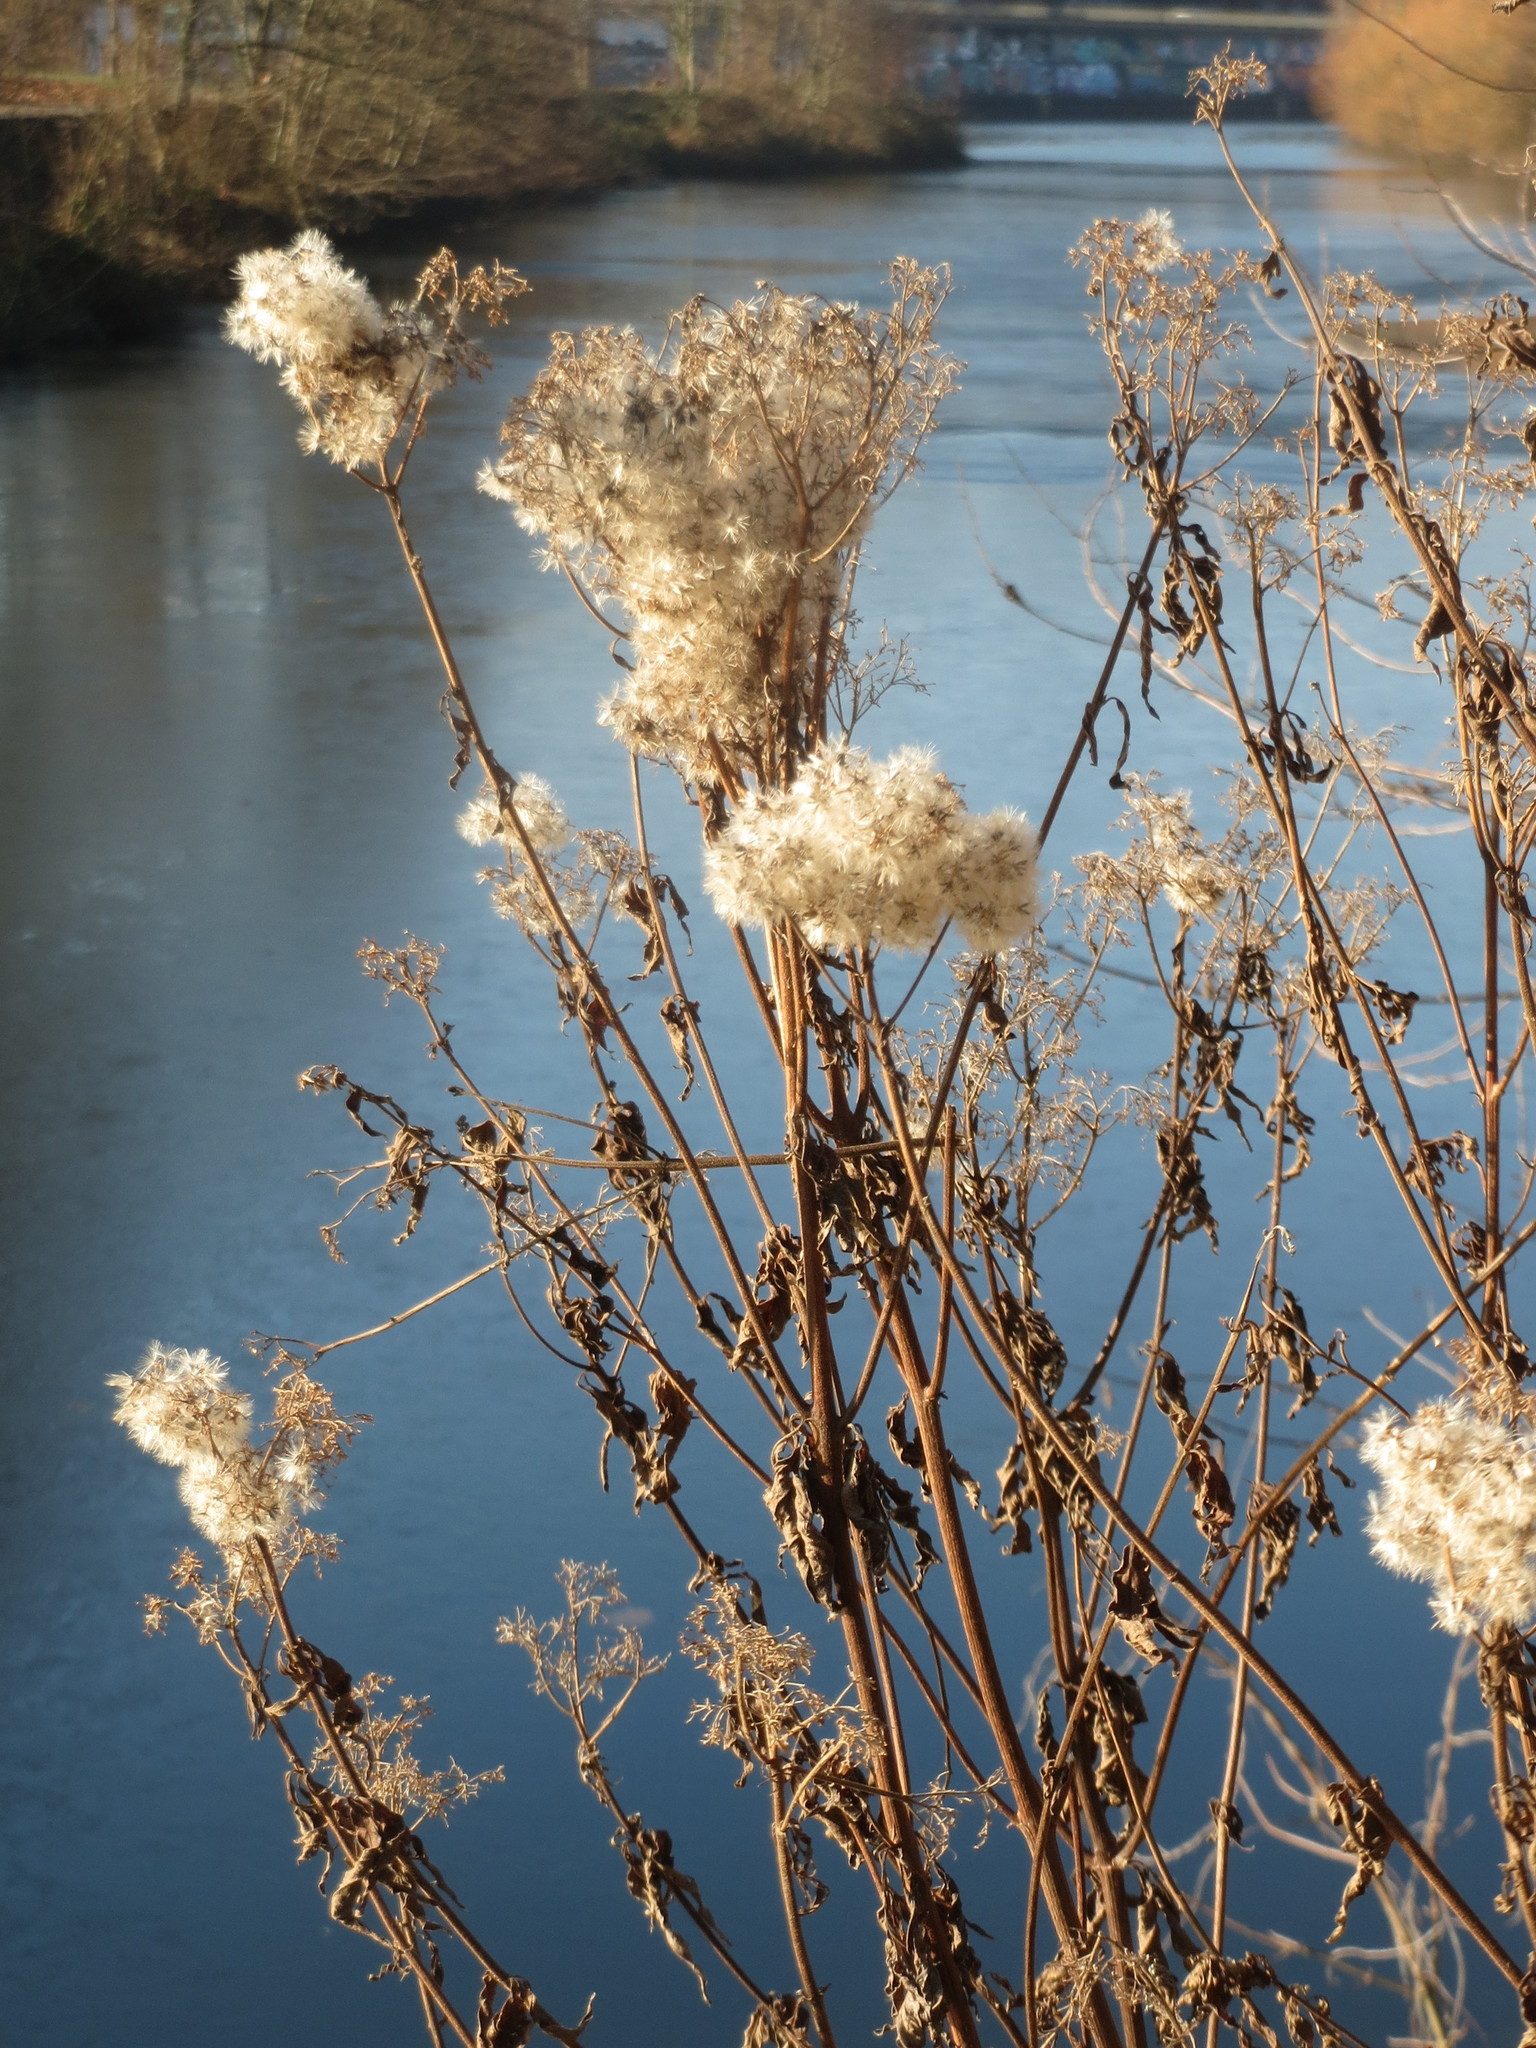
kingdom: Plantae
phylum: Tracheophyta
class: Magnoliopsida
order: Asterales
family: Asteraceae
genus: Eupatorium
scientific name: Eupatorium cannabinum
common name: Hemp-agrimony
